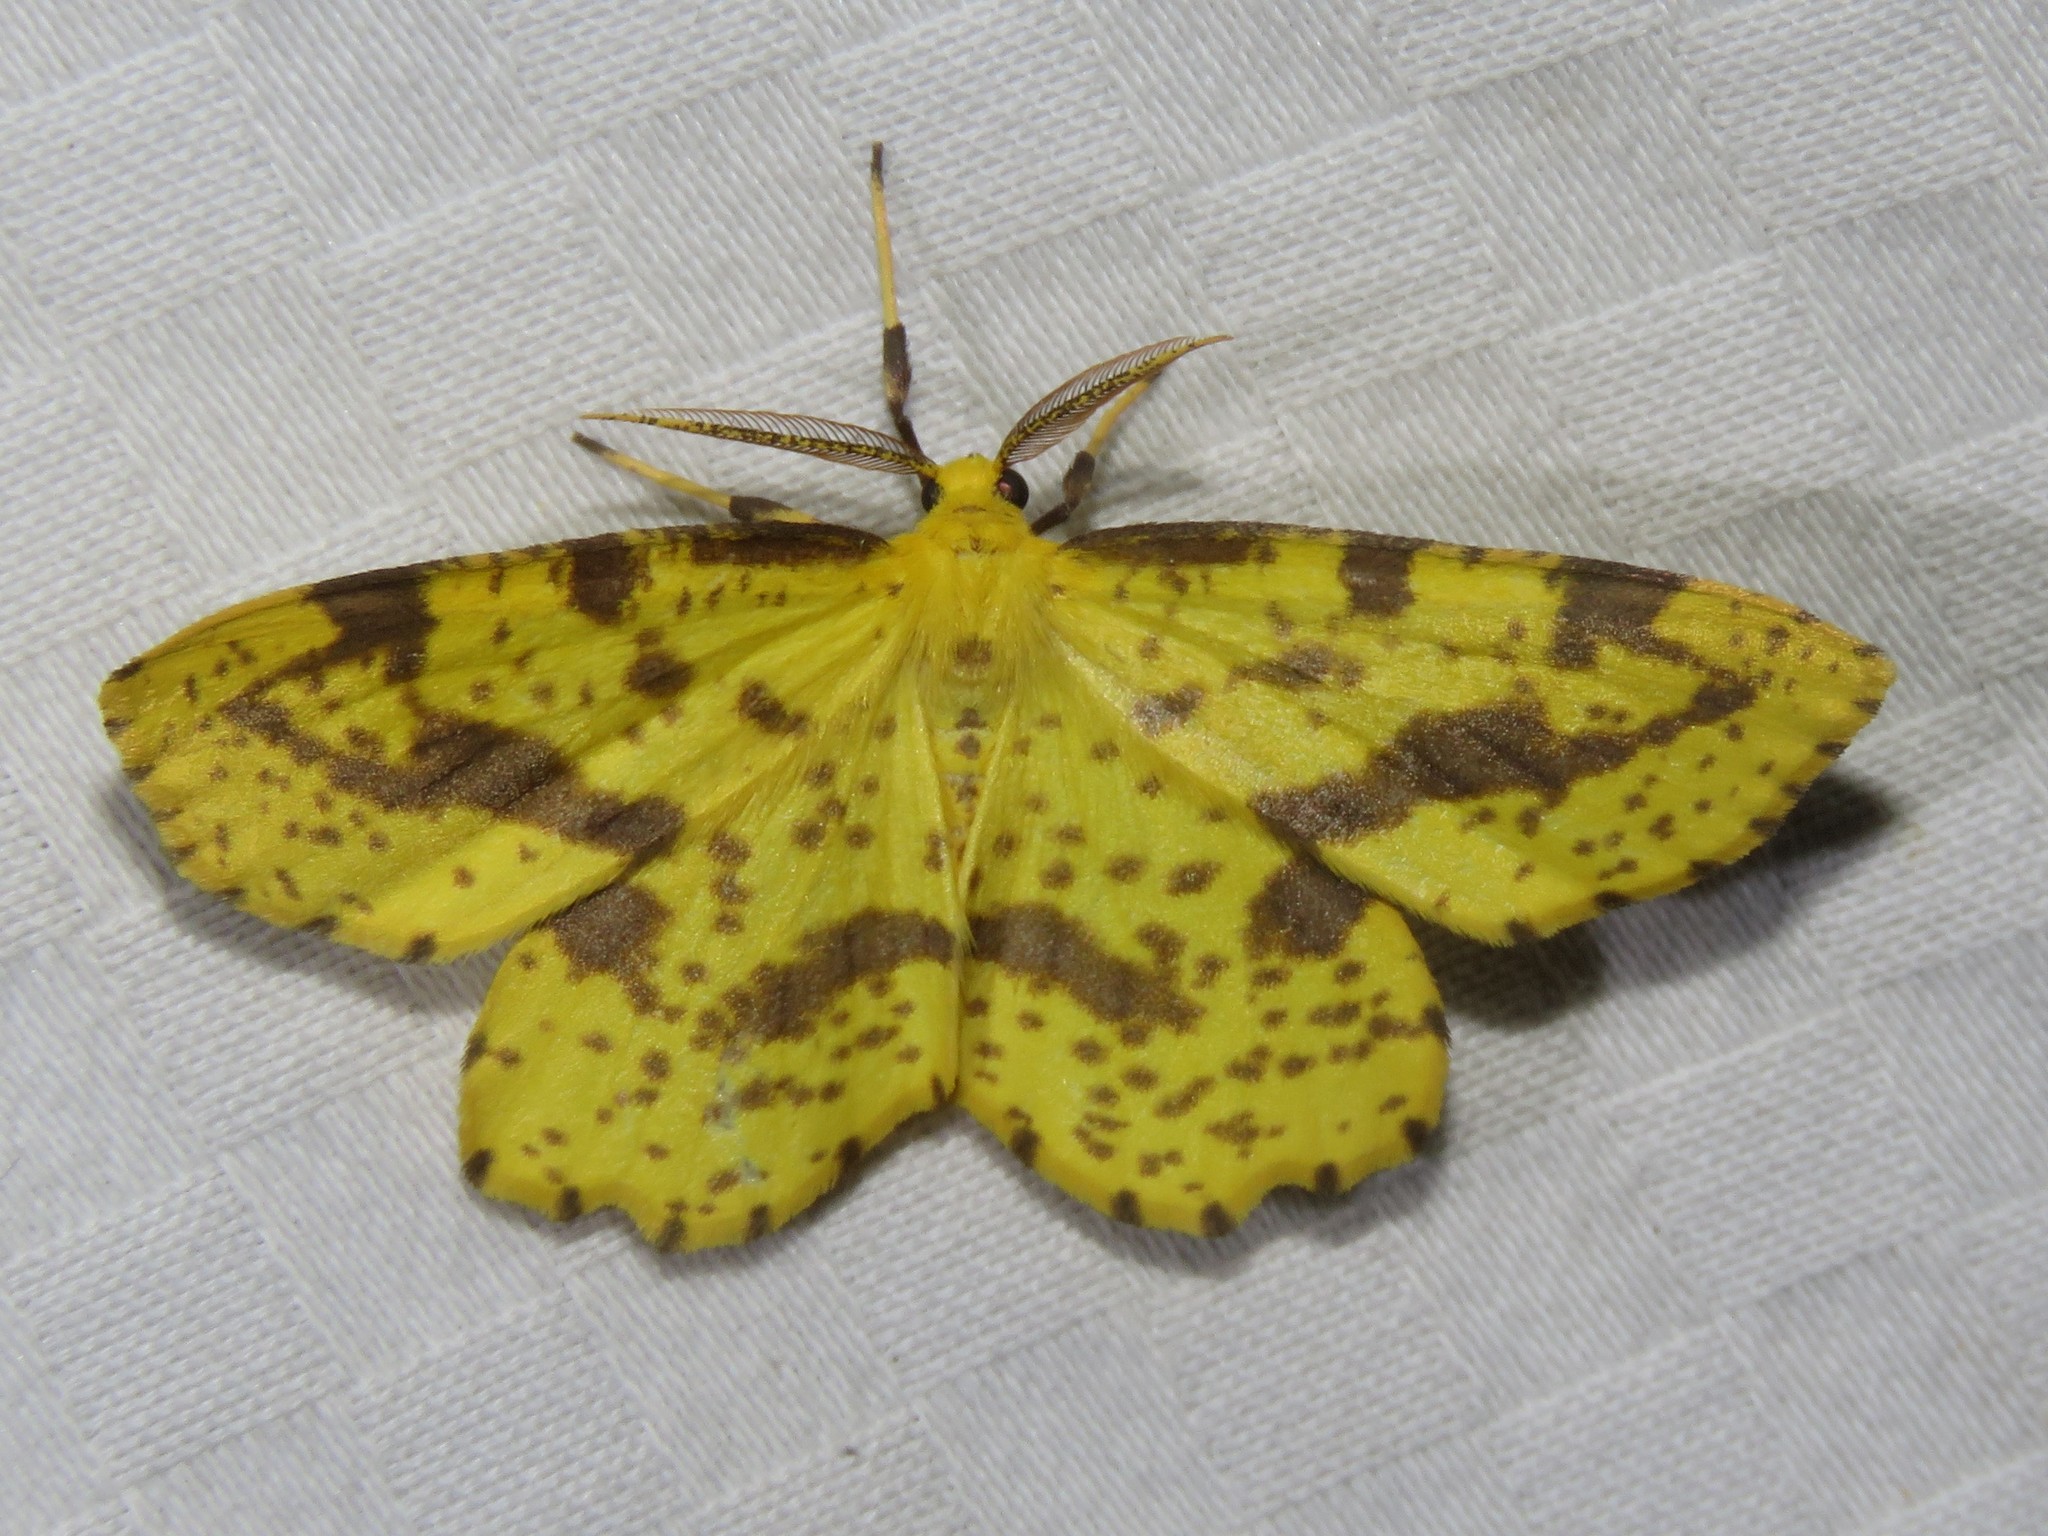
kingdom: Animalia
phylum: Arthropoda
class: Insecta
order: Lepidoptera
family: Geometridae
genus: Xanthotype
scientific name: Xanthotype
